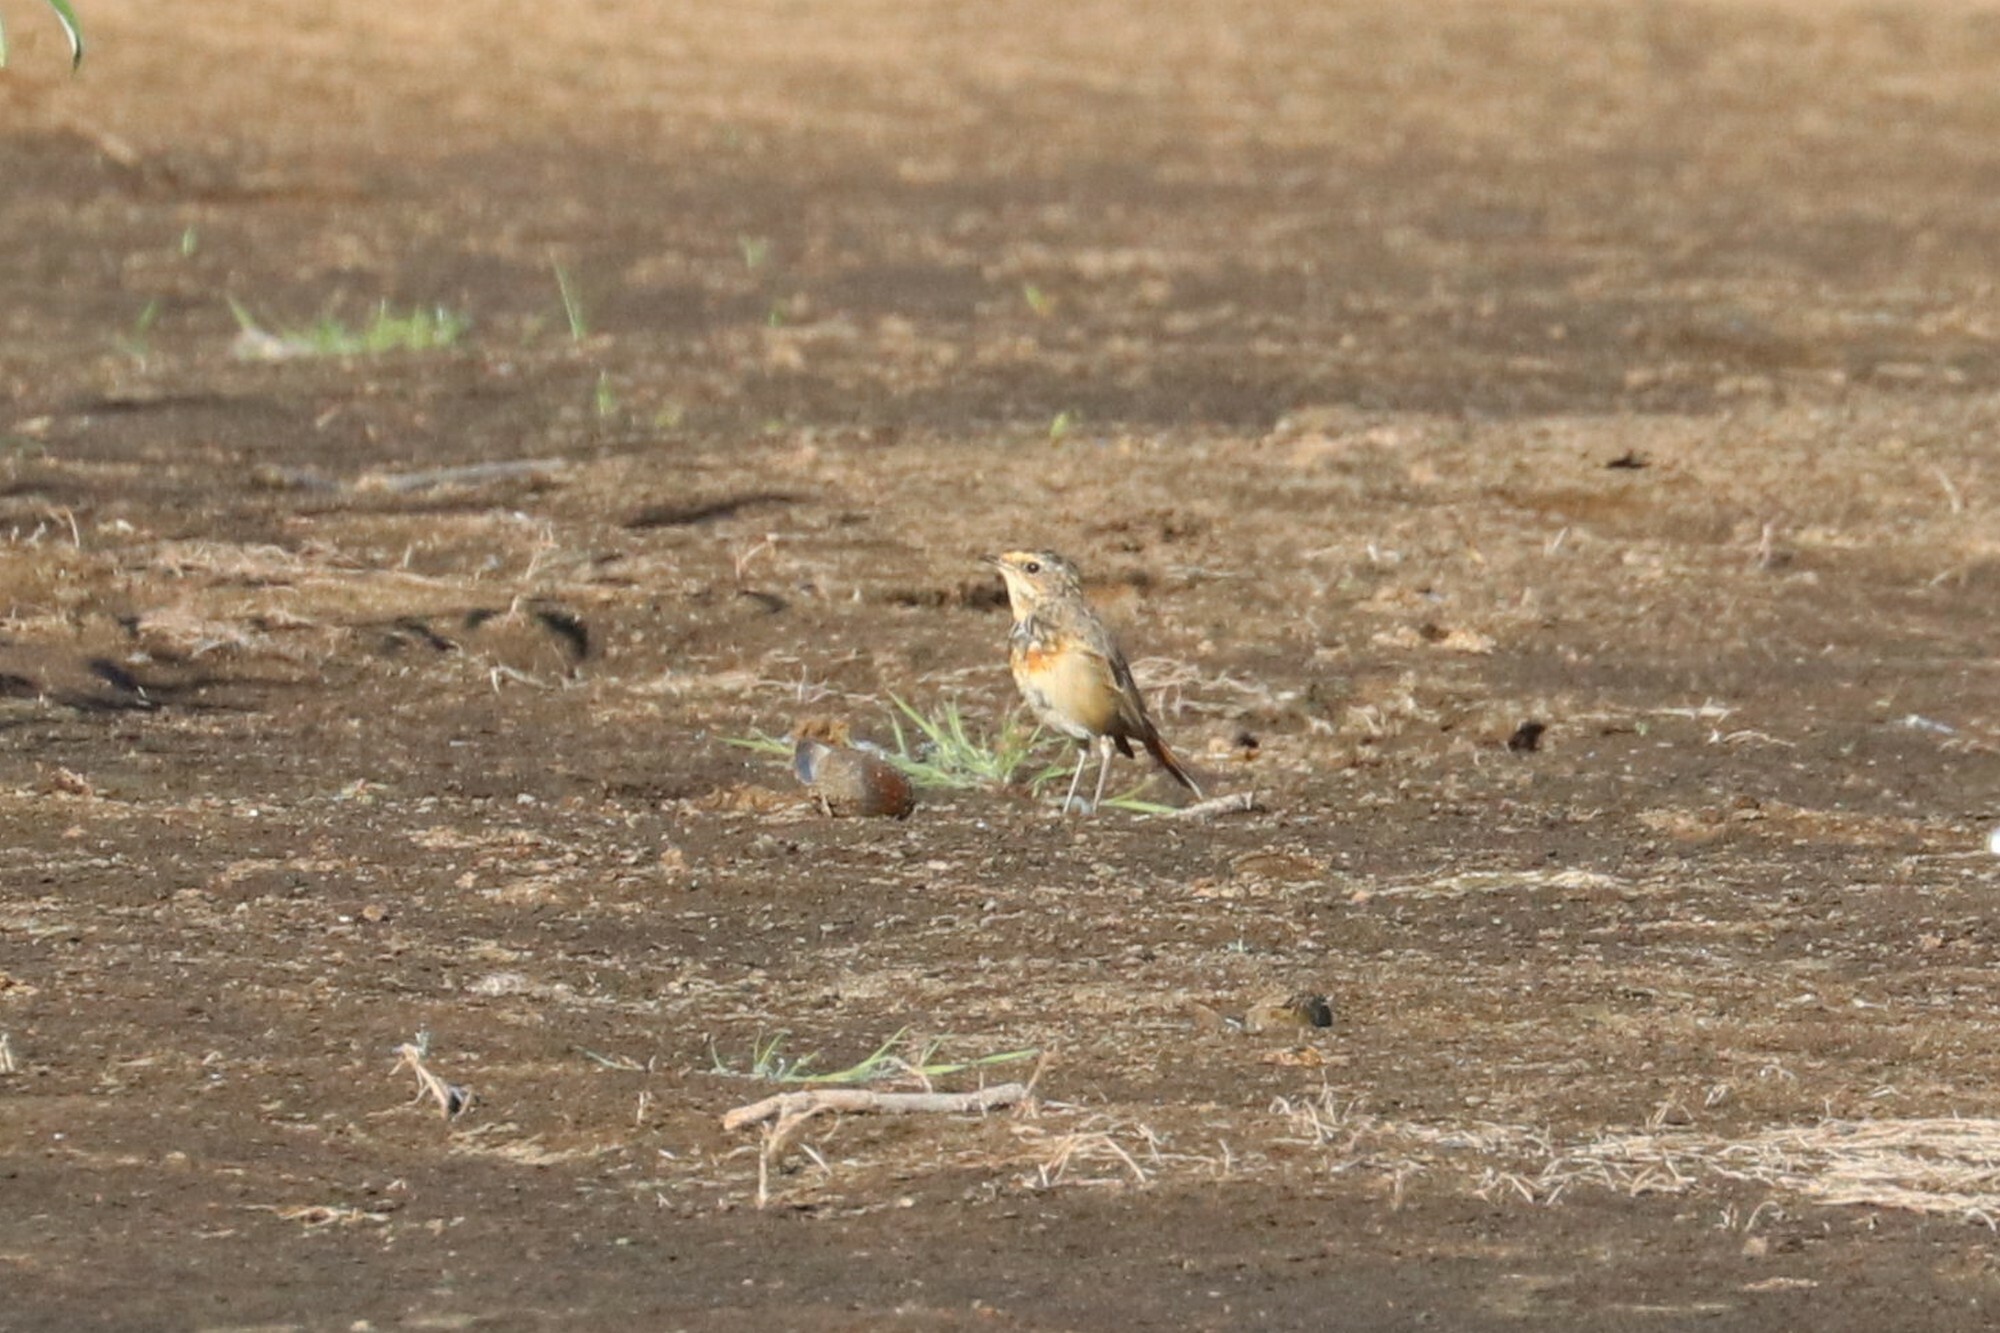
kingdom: Animalia
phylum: Chordata
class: Aves
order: Passeriformes
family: Muscicapidae
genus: Luscinia
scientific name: Luscinia svecica
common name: Bluethroat
